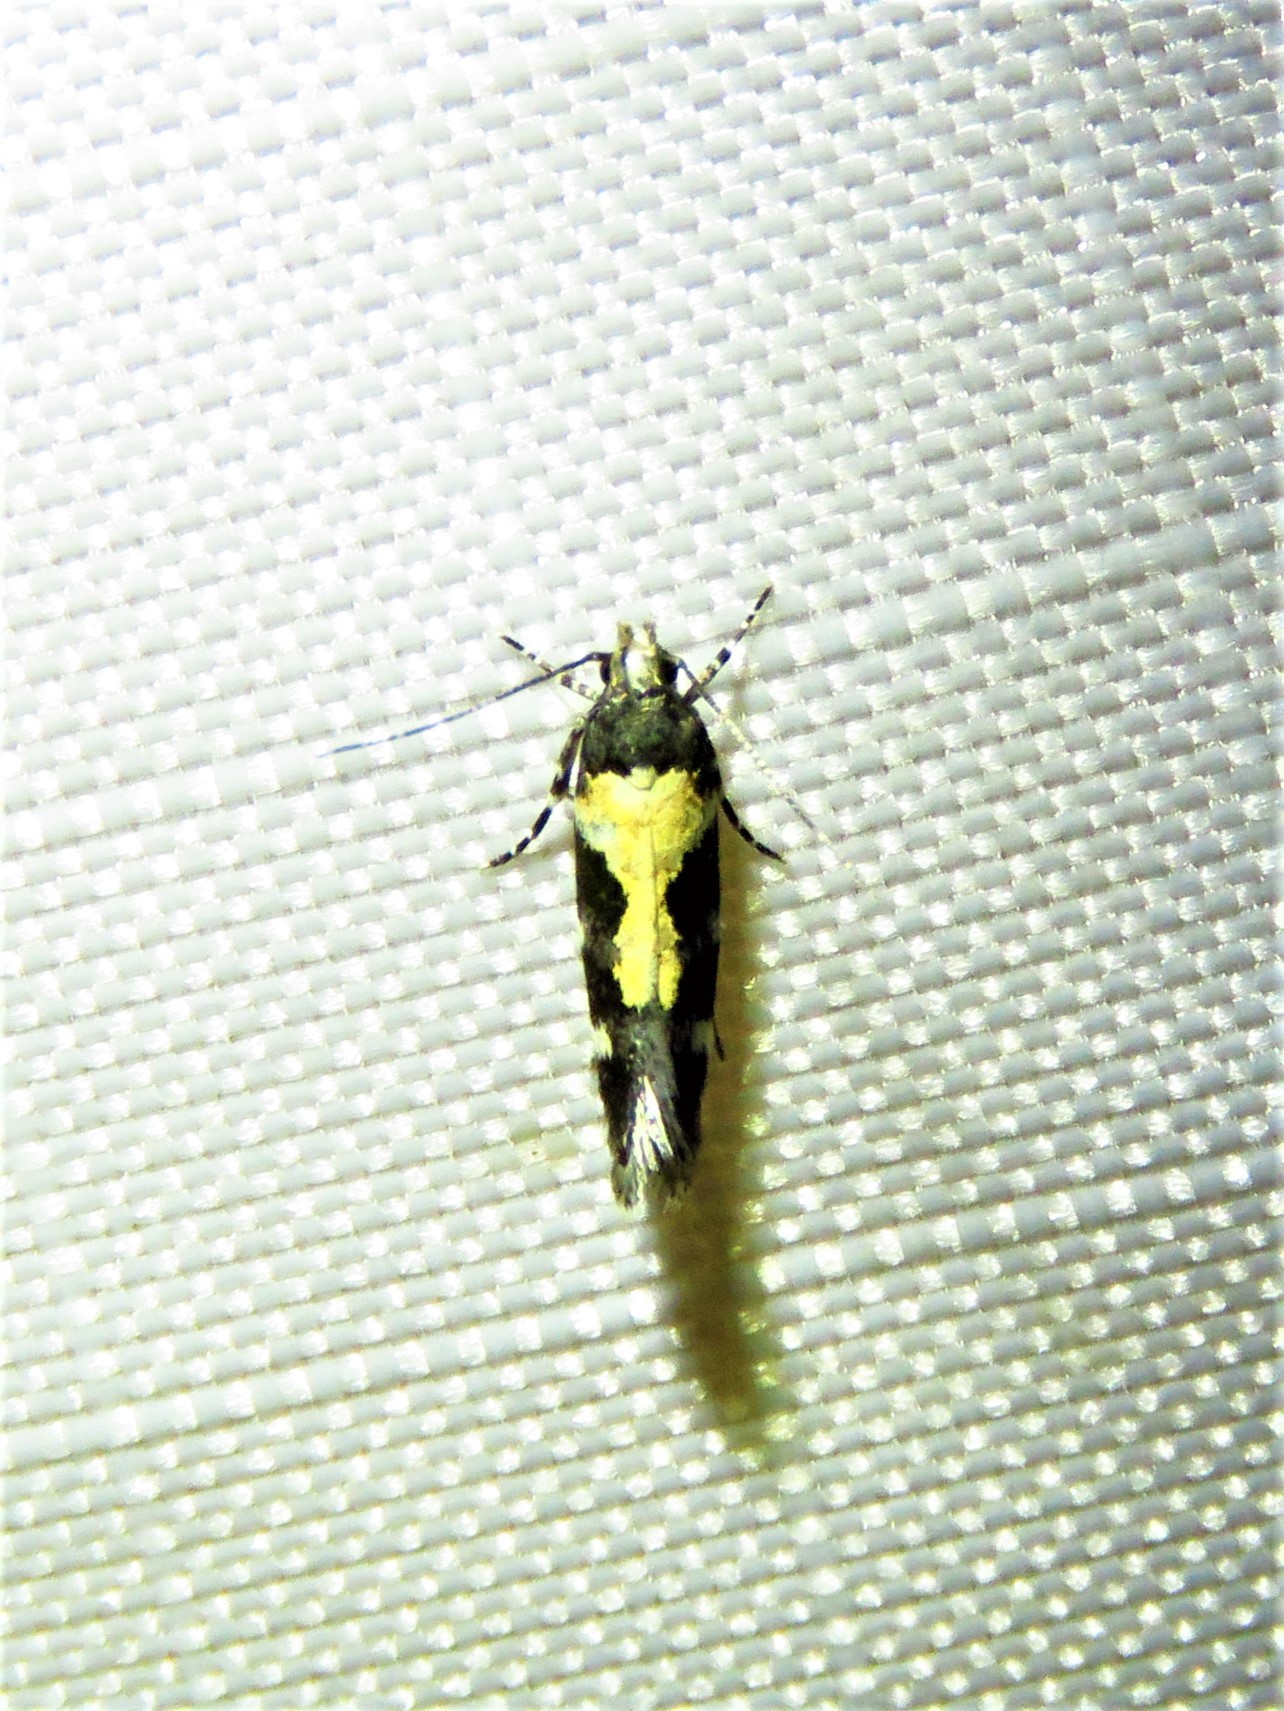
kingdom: Animalia
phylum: Arthropoda
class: Insecta
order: Lepidoptera
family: Gelechiidae
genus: Stegasta
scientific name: Stegasta bosqueella
